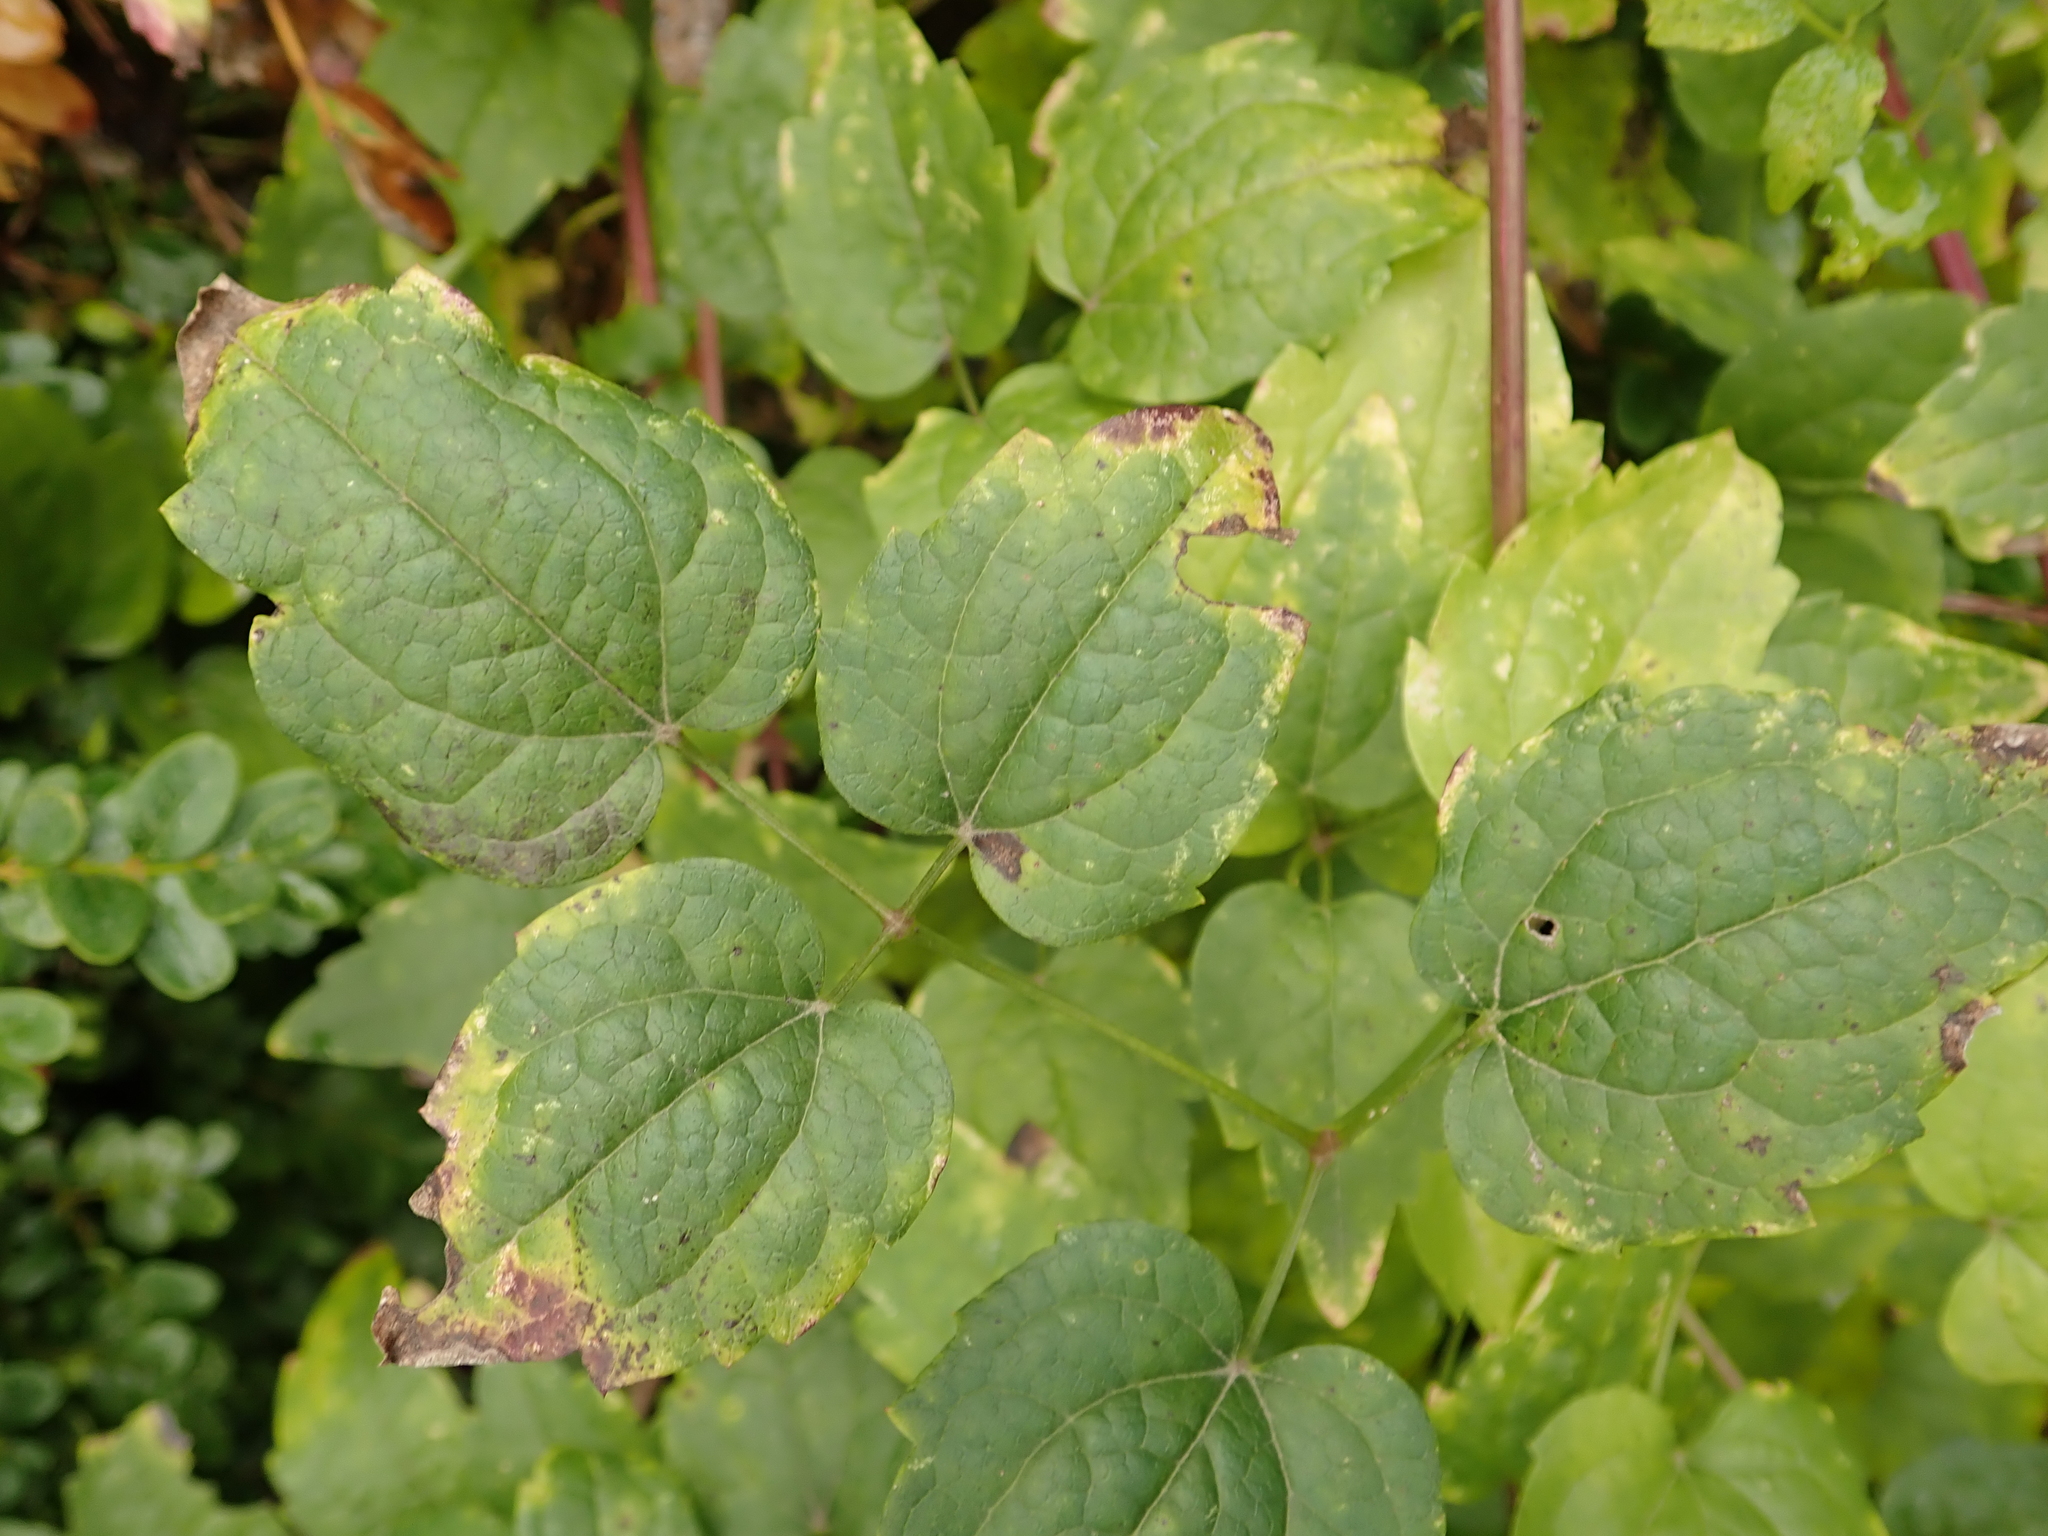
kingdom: Plantae
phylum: Tracheophyta
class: Magnoliopsida
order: Ranunculales
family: Ranunculaceae
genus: Clematis
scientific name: Clematis vitalba
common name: Evergreen clematis
